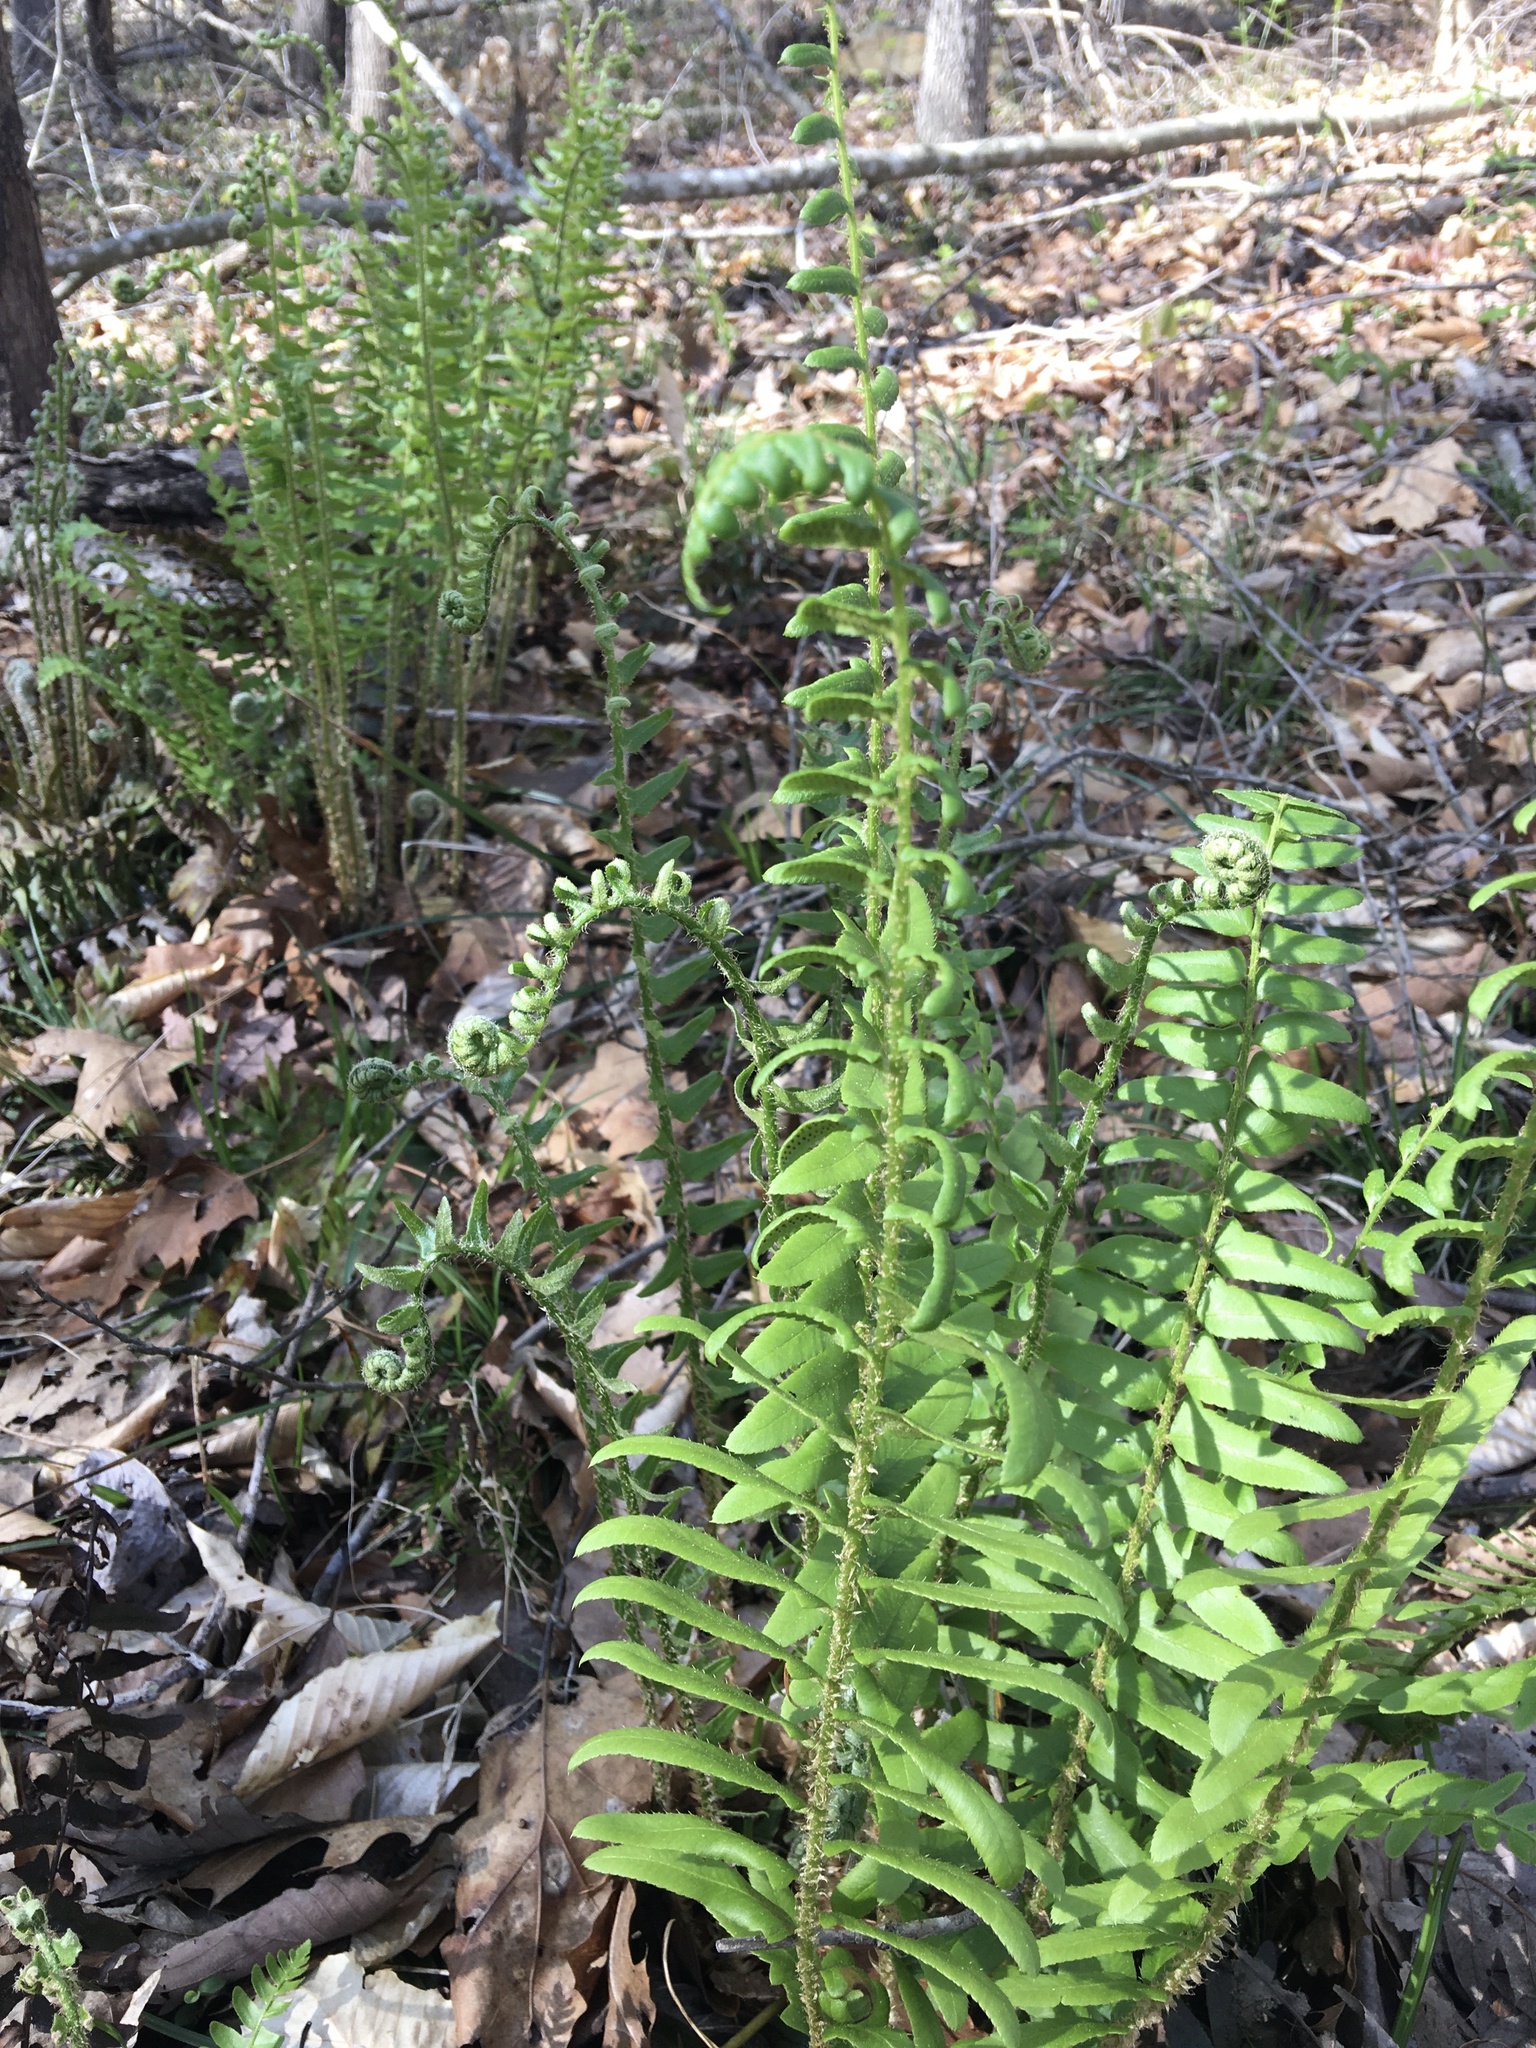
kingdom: Plantae
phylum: Tracheophyta
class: Polypodiopsida
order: Polypodiales
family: Dryopteridaceae
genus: Polystichum
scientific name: Polystichum acrostichoides
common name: Christmas fern
